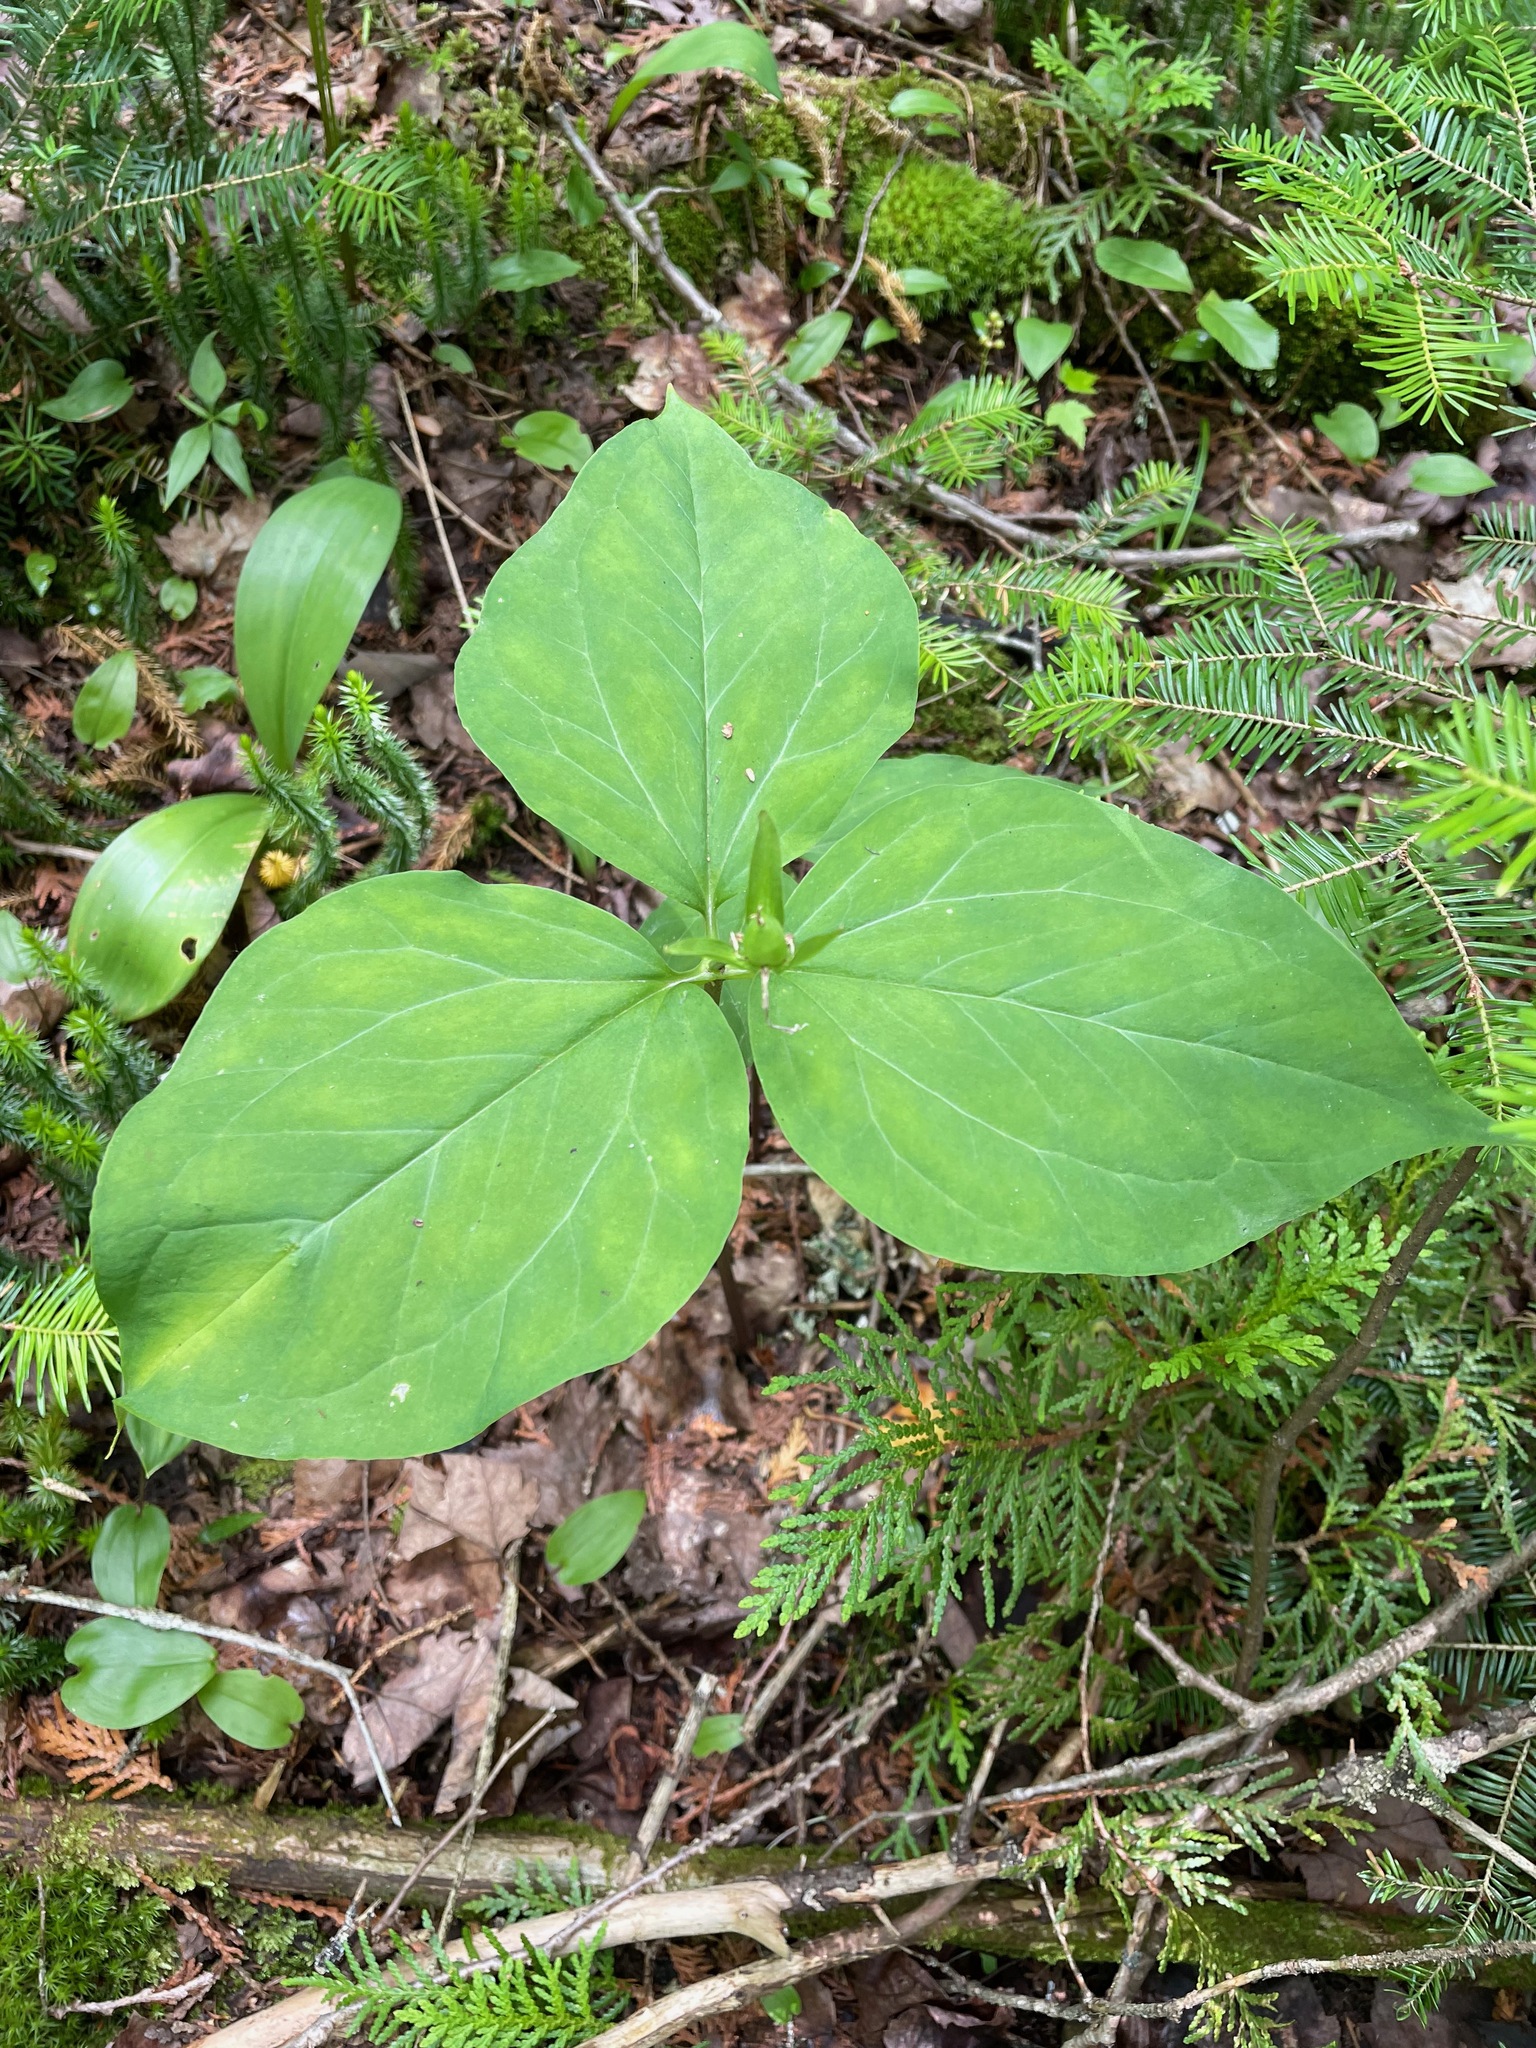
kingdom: Plantae
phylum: Tracheophyta
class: Liliopsida
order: Liliales
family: Melanthiaceae
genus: Trillium
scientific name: Trillium undulatum
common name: Paint trillium
